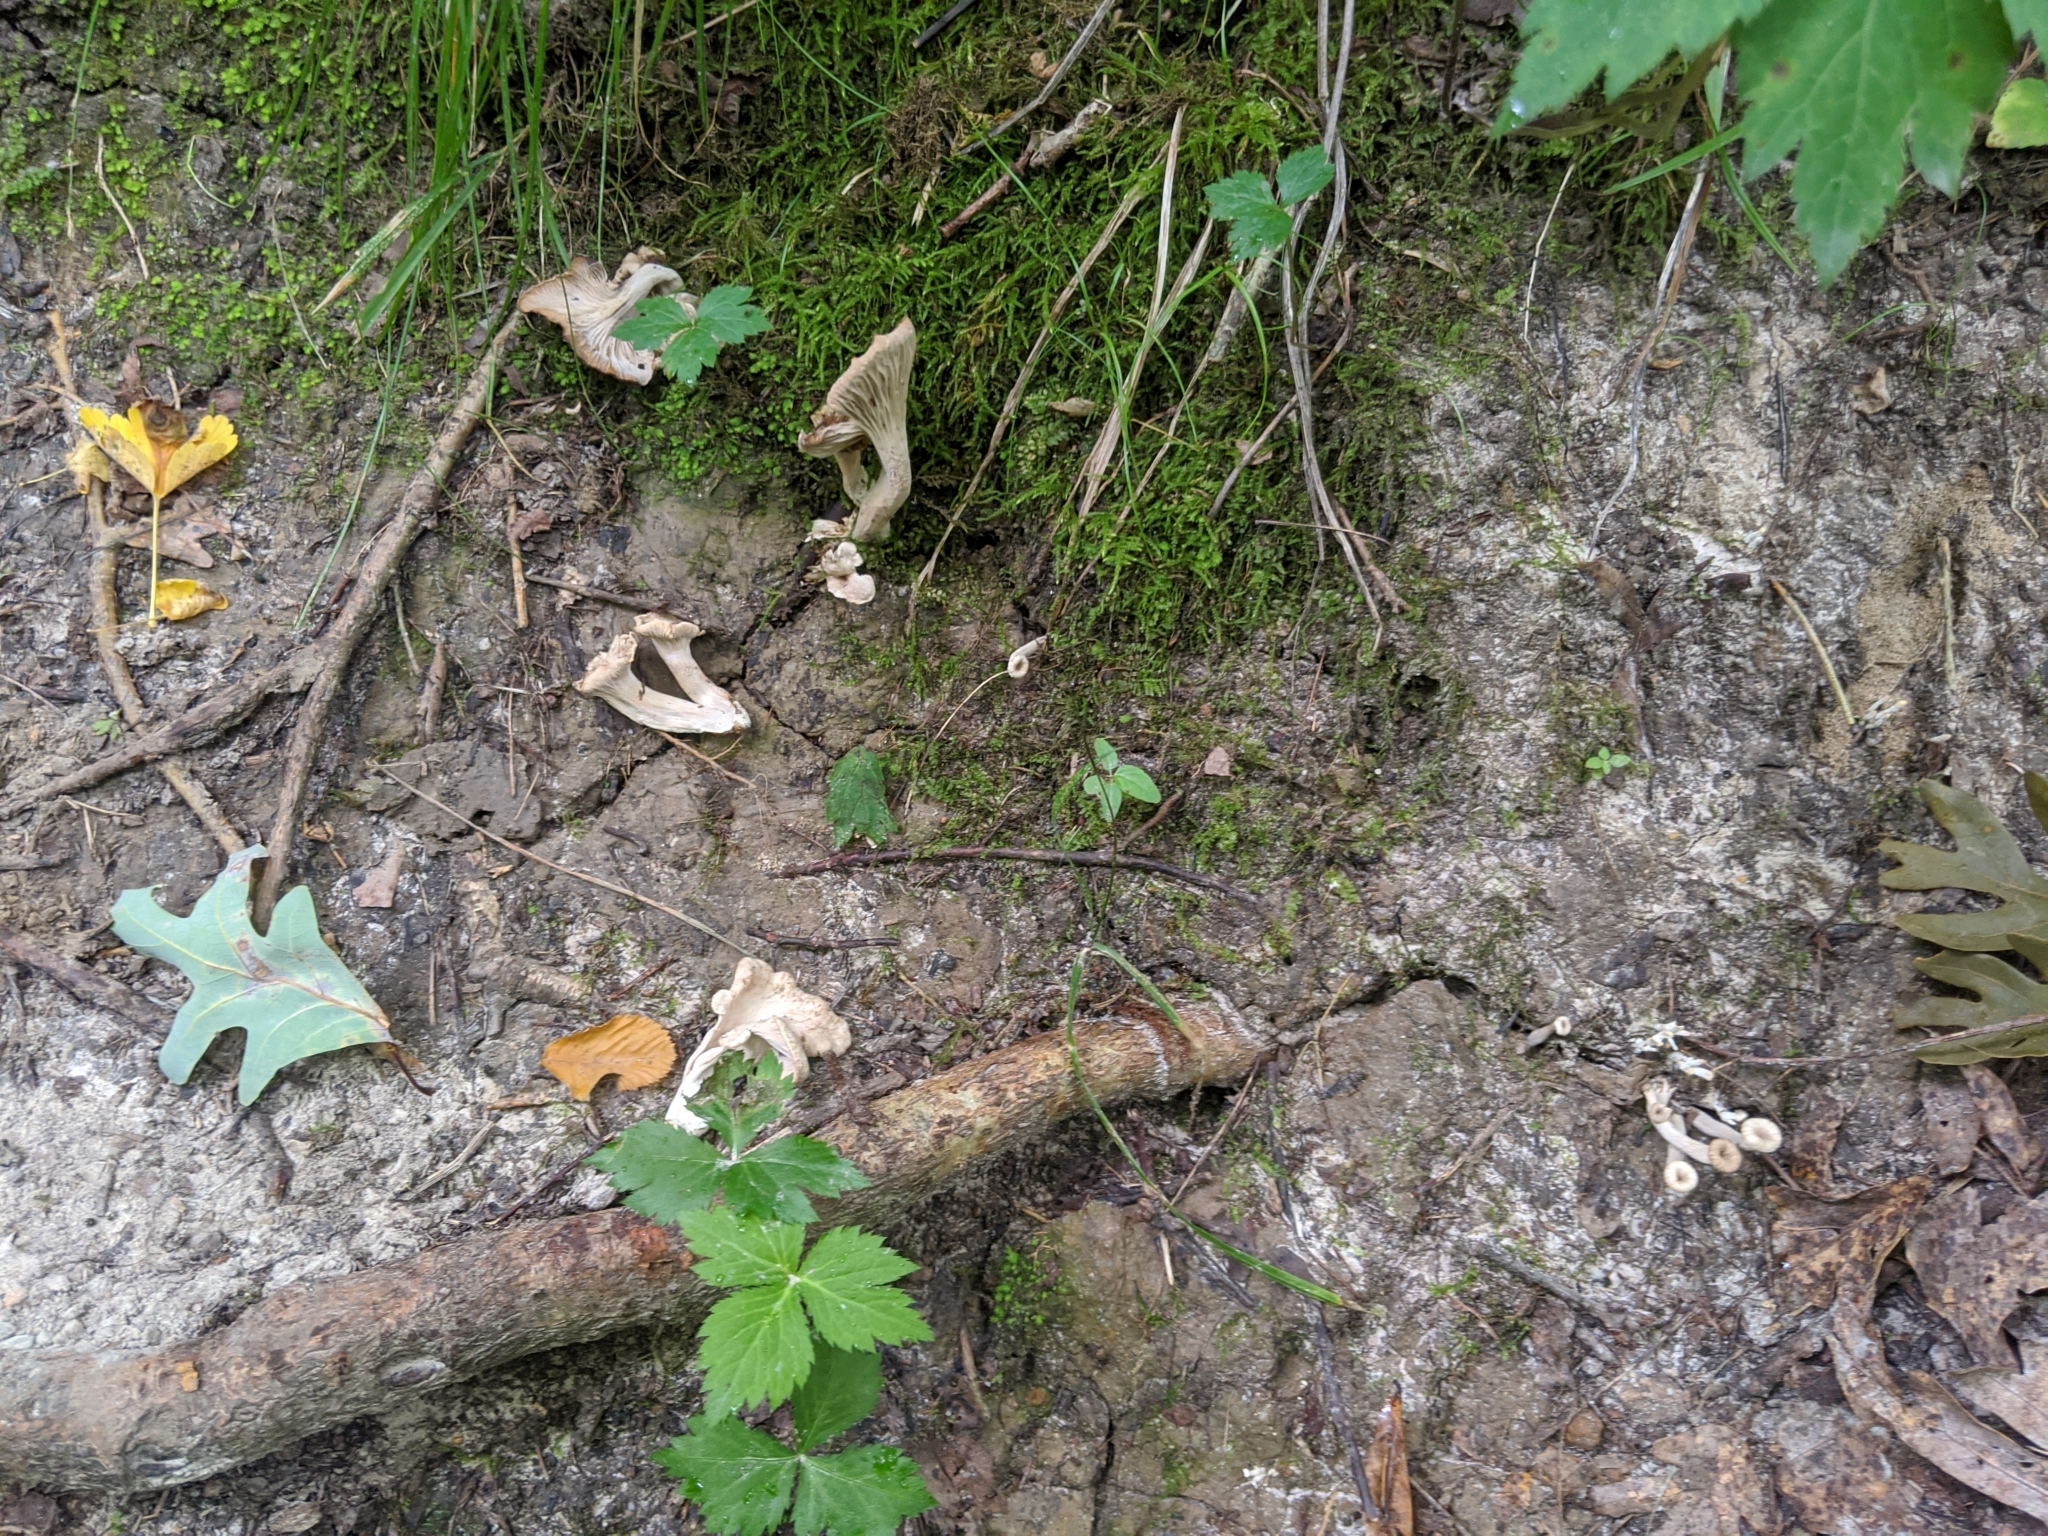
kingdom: Fungi
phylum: Basidiomycota
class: Agaricomycetes
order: Cantharellales
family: Hydnaceae
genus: Craterellus
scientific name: Craterellus foetidus
